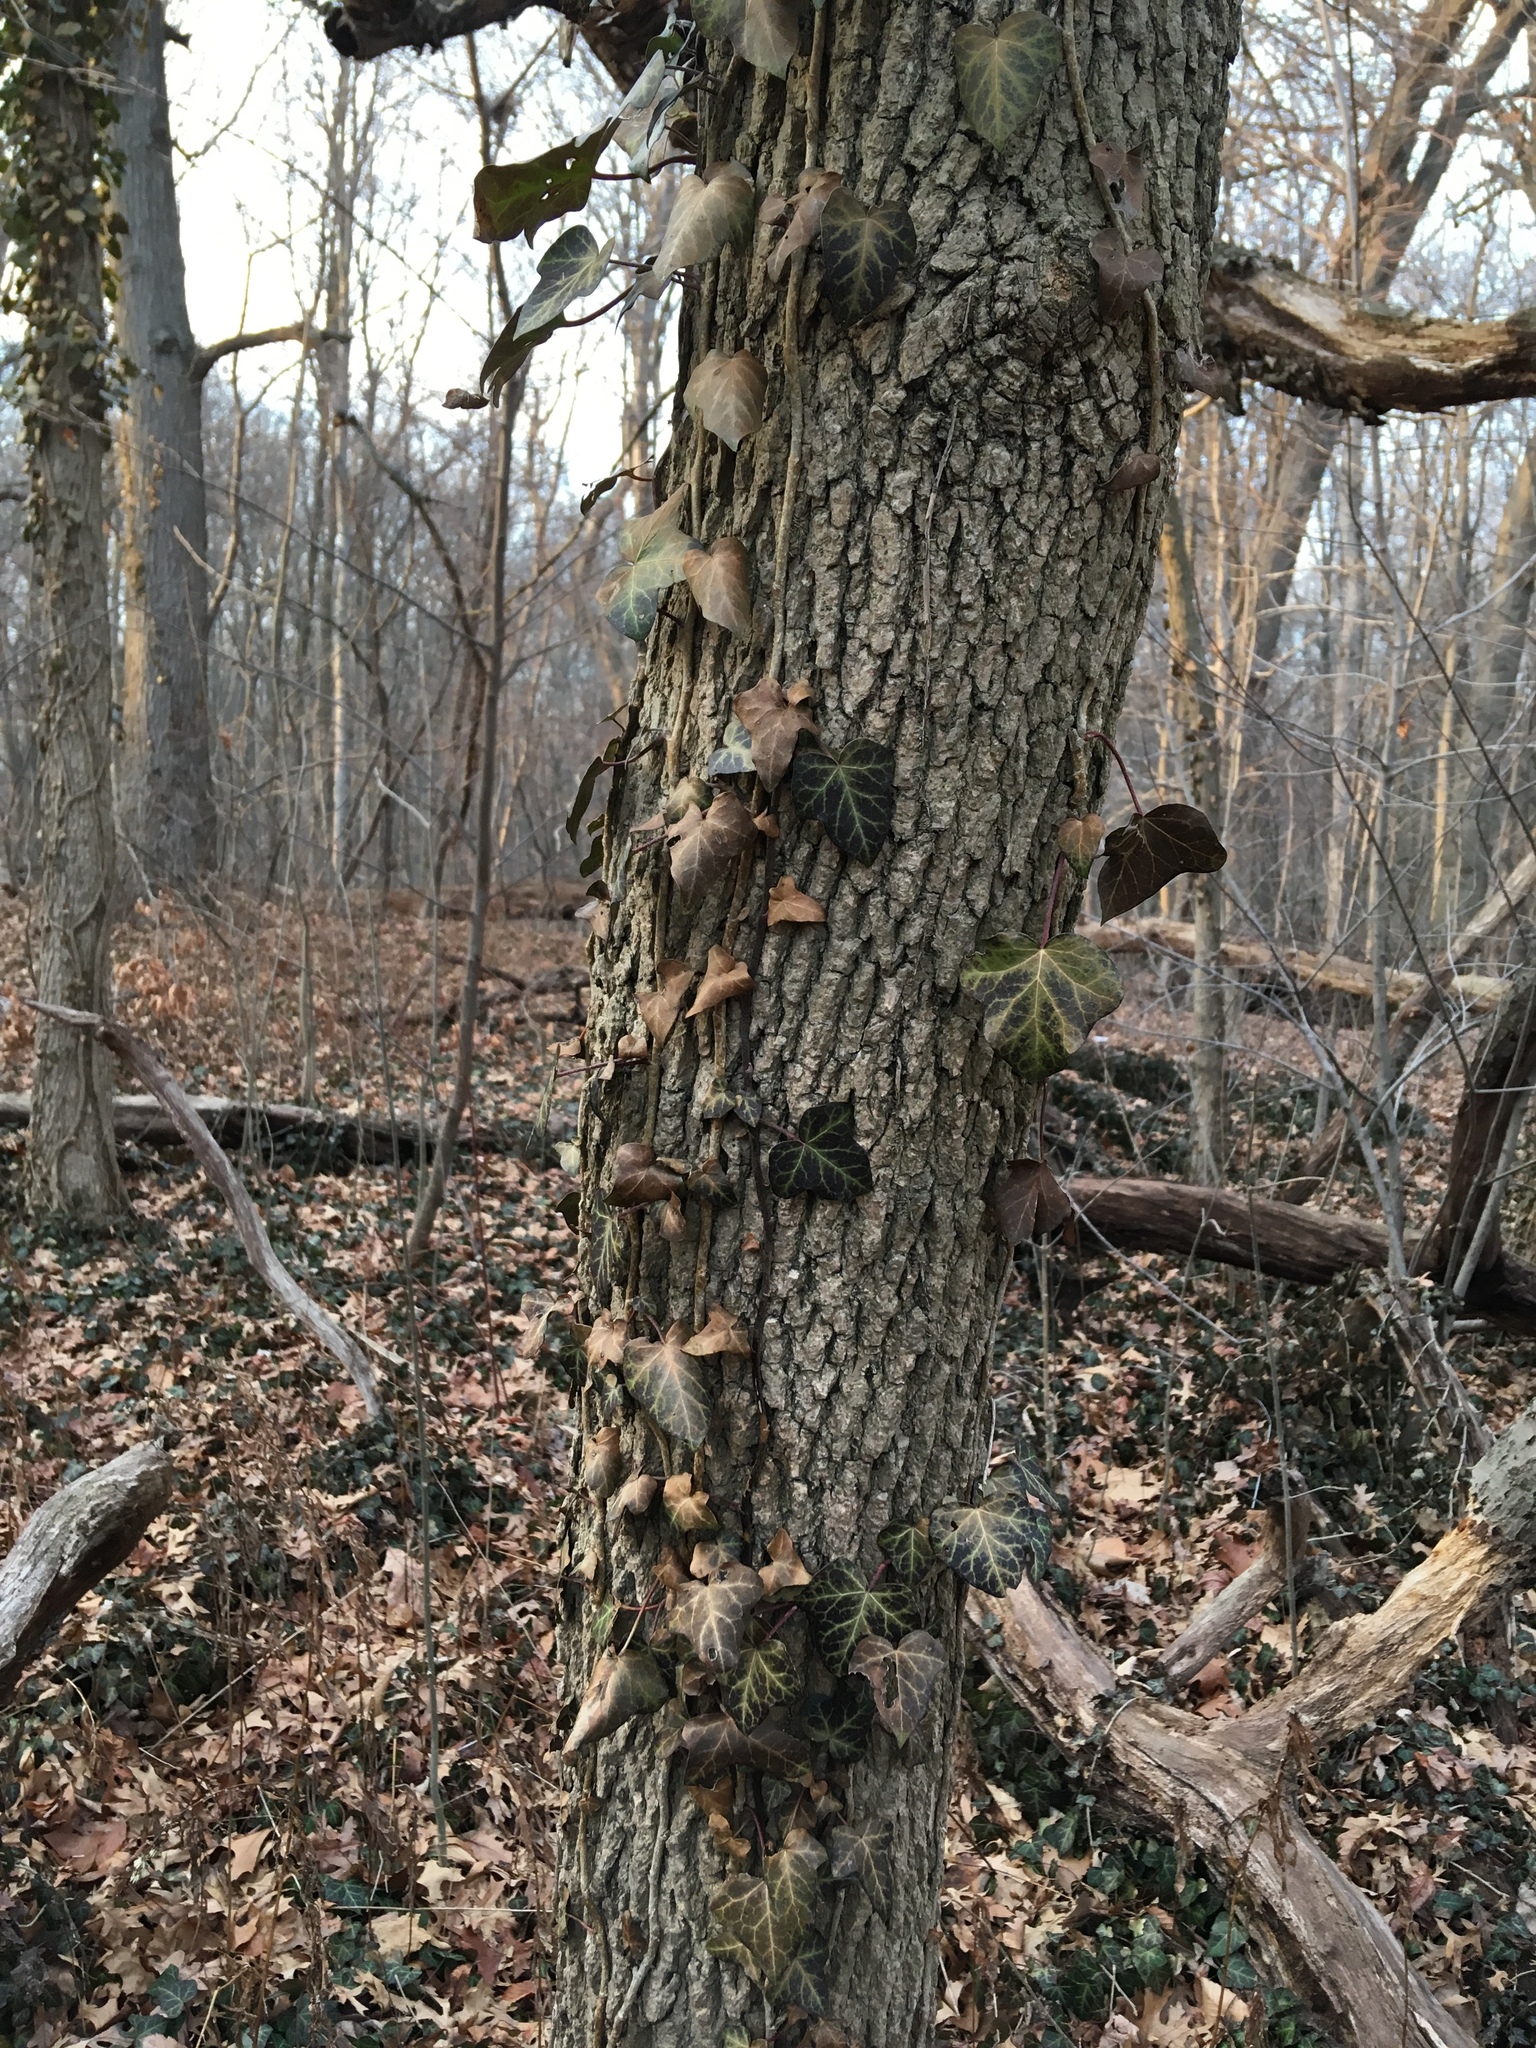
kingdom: Plantae
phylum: Tracheophyta
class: Magnoliopsida
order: Apiales
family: Araliaceae
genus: Hedera
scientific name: Hedera helix
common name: Ivy
